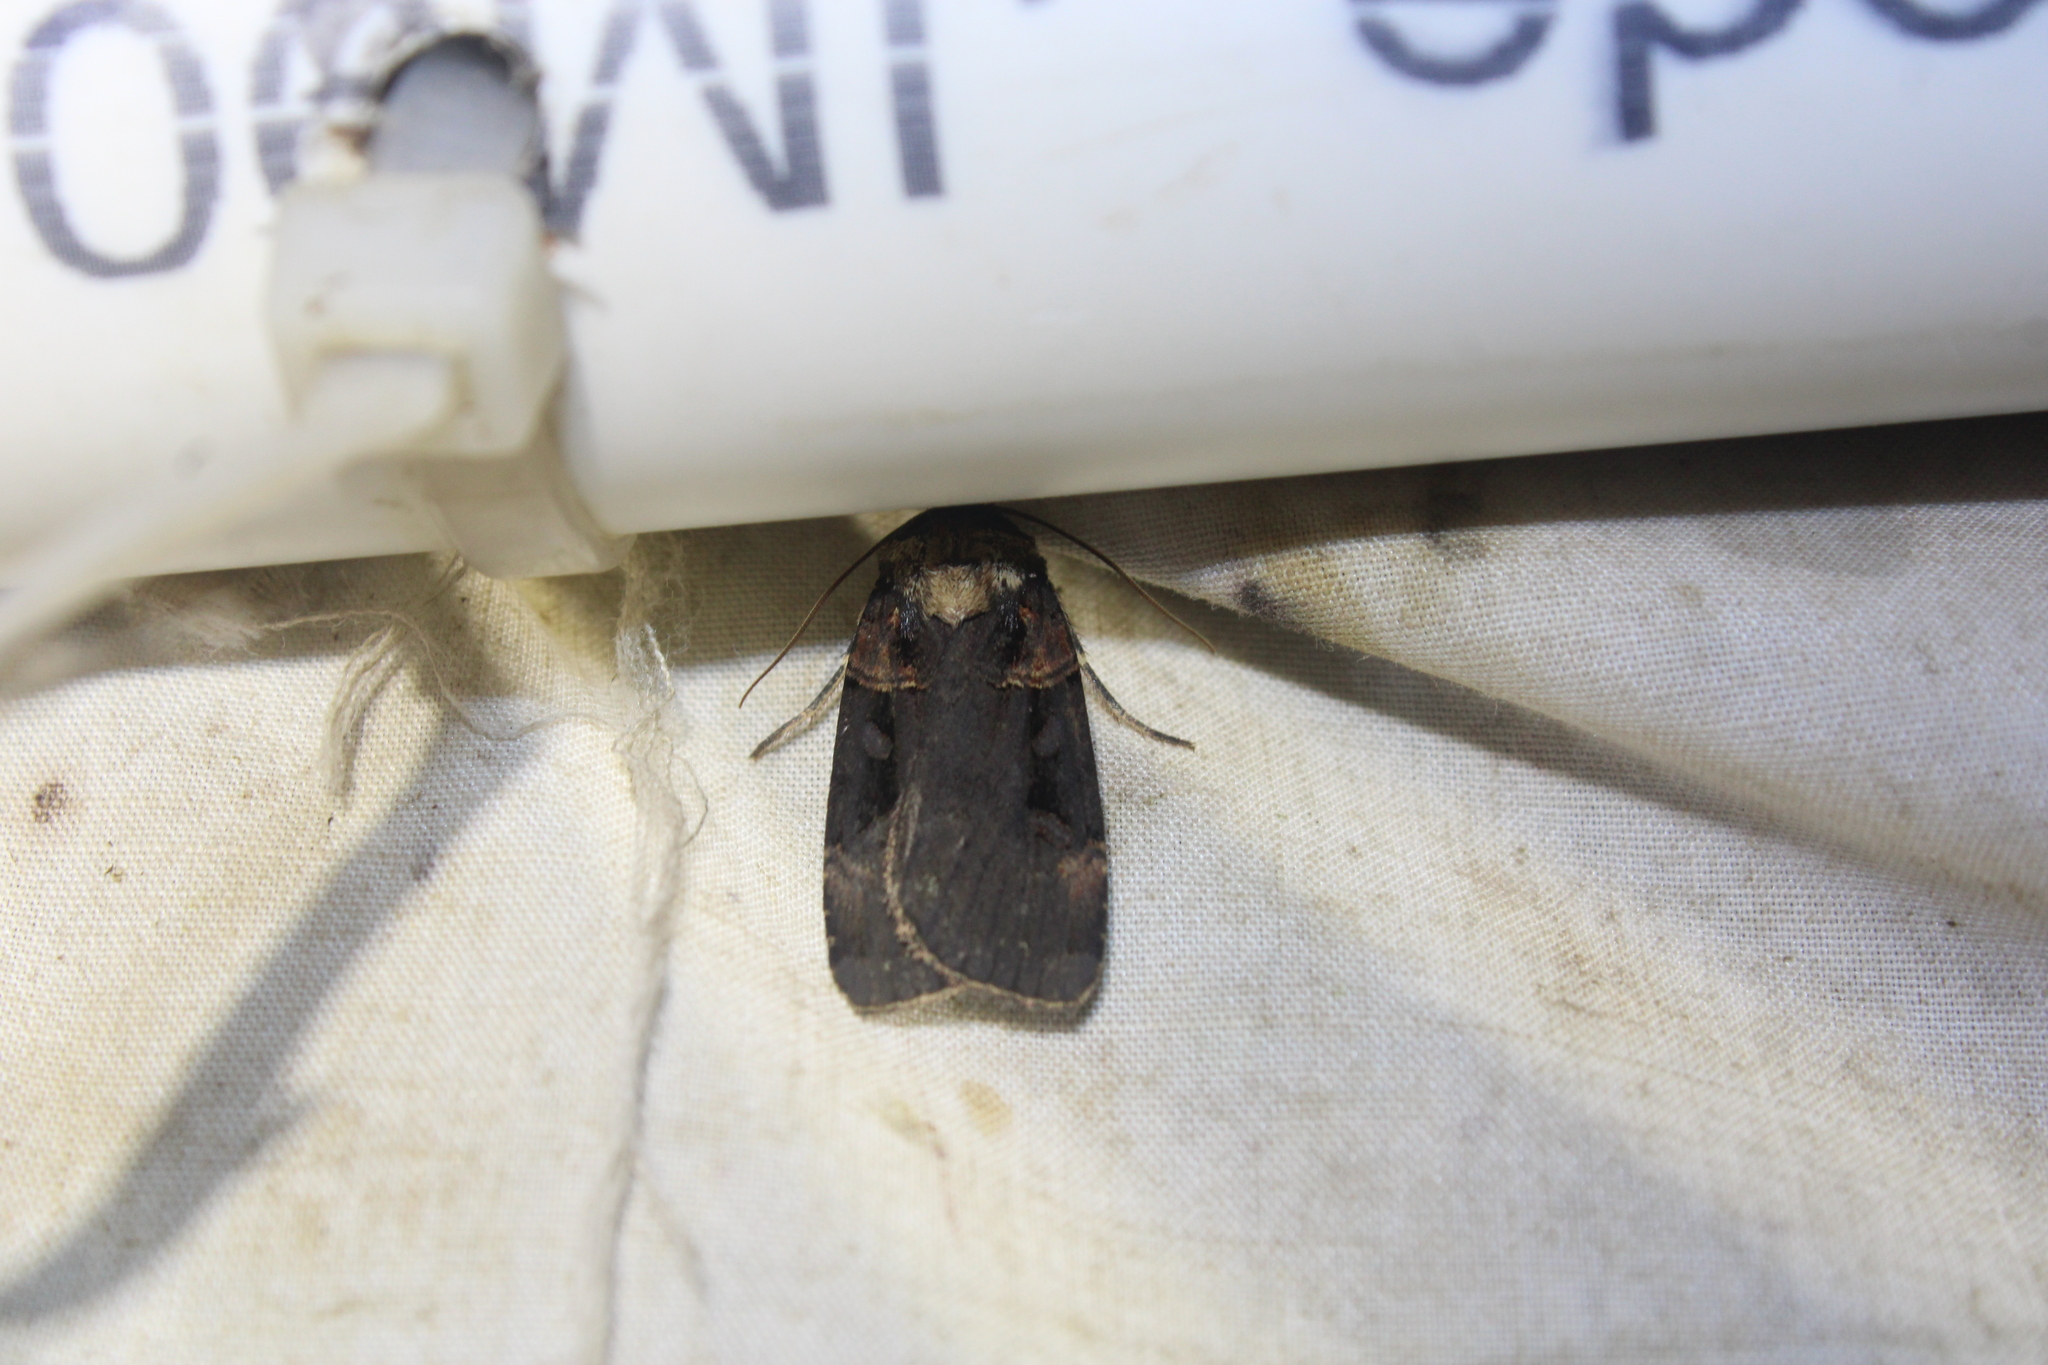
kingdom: Animalia
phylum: Arthropoda
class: Insecta
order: Lepidoptera
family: Noctuidae
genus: Pseudohermonassa
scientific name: Pseudohermonassa bicarnea
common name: Pink spotted dart
